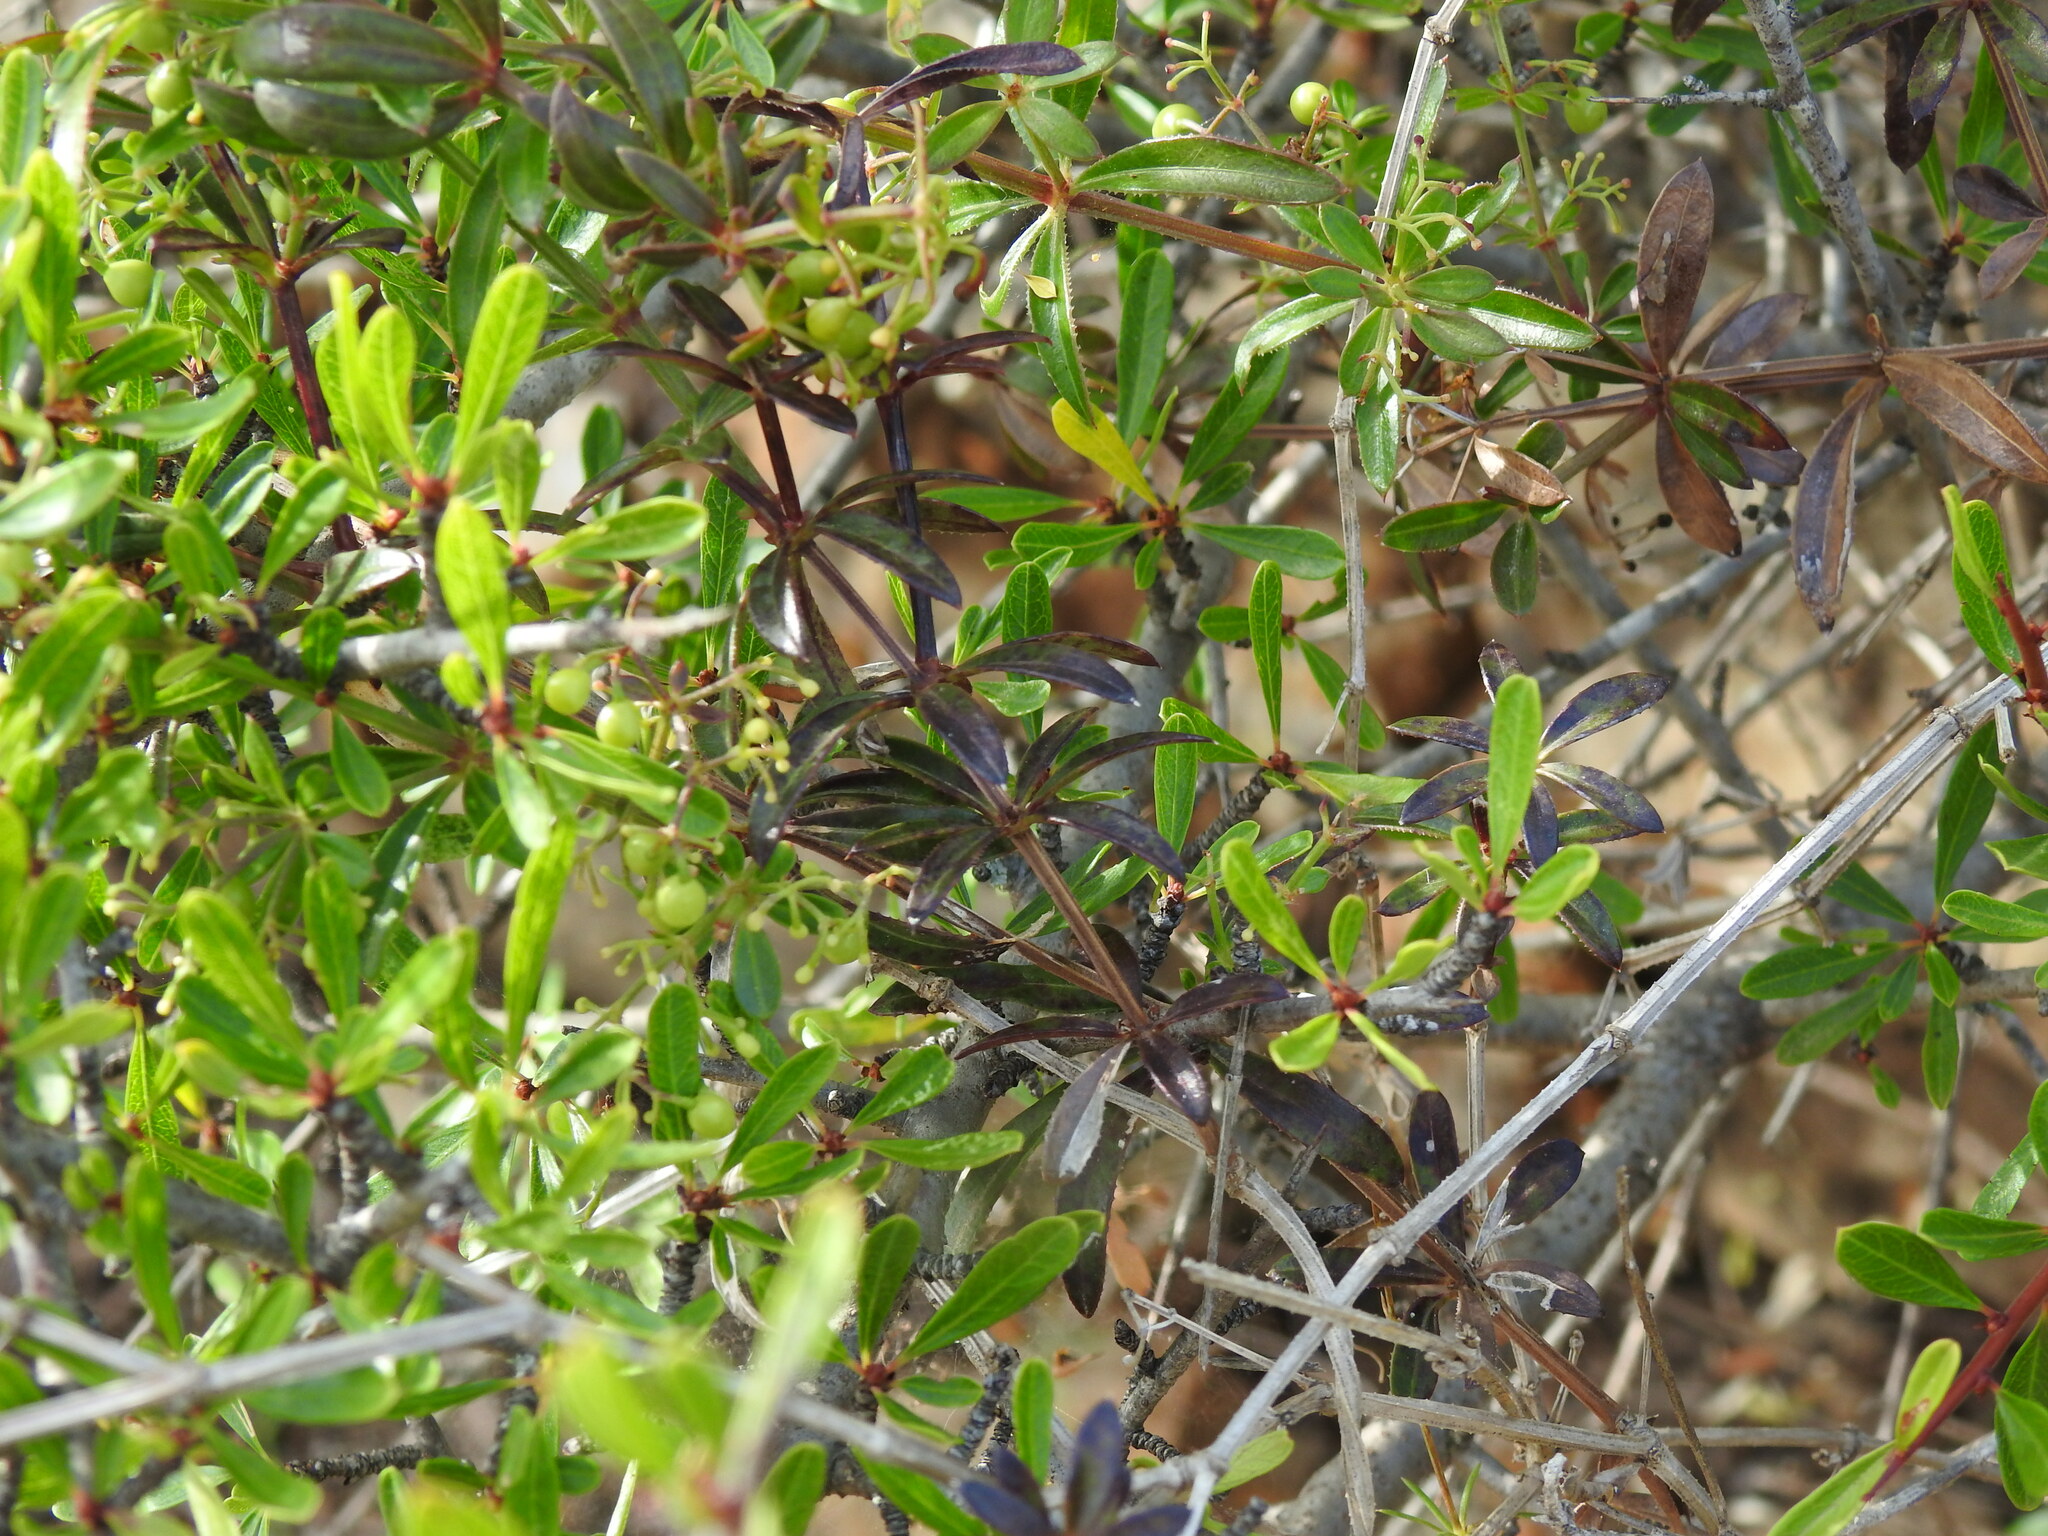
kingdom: Plantae
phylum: Tracheophyta
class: Magnoliopsida
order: Gentianales
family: Rubiaceae
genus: Rubia
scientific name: Rubia peregrina
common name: Wild madder
